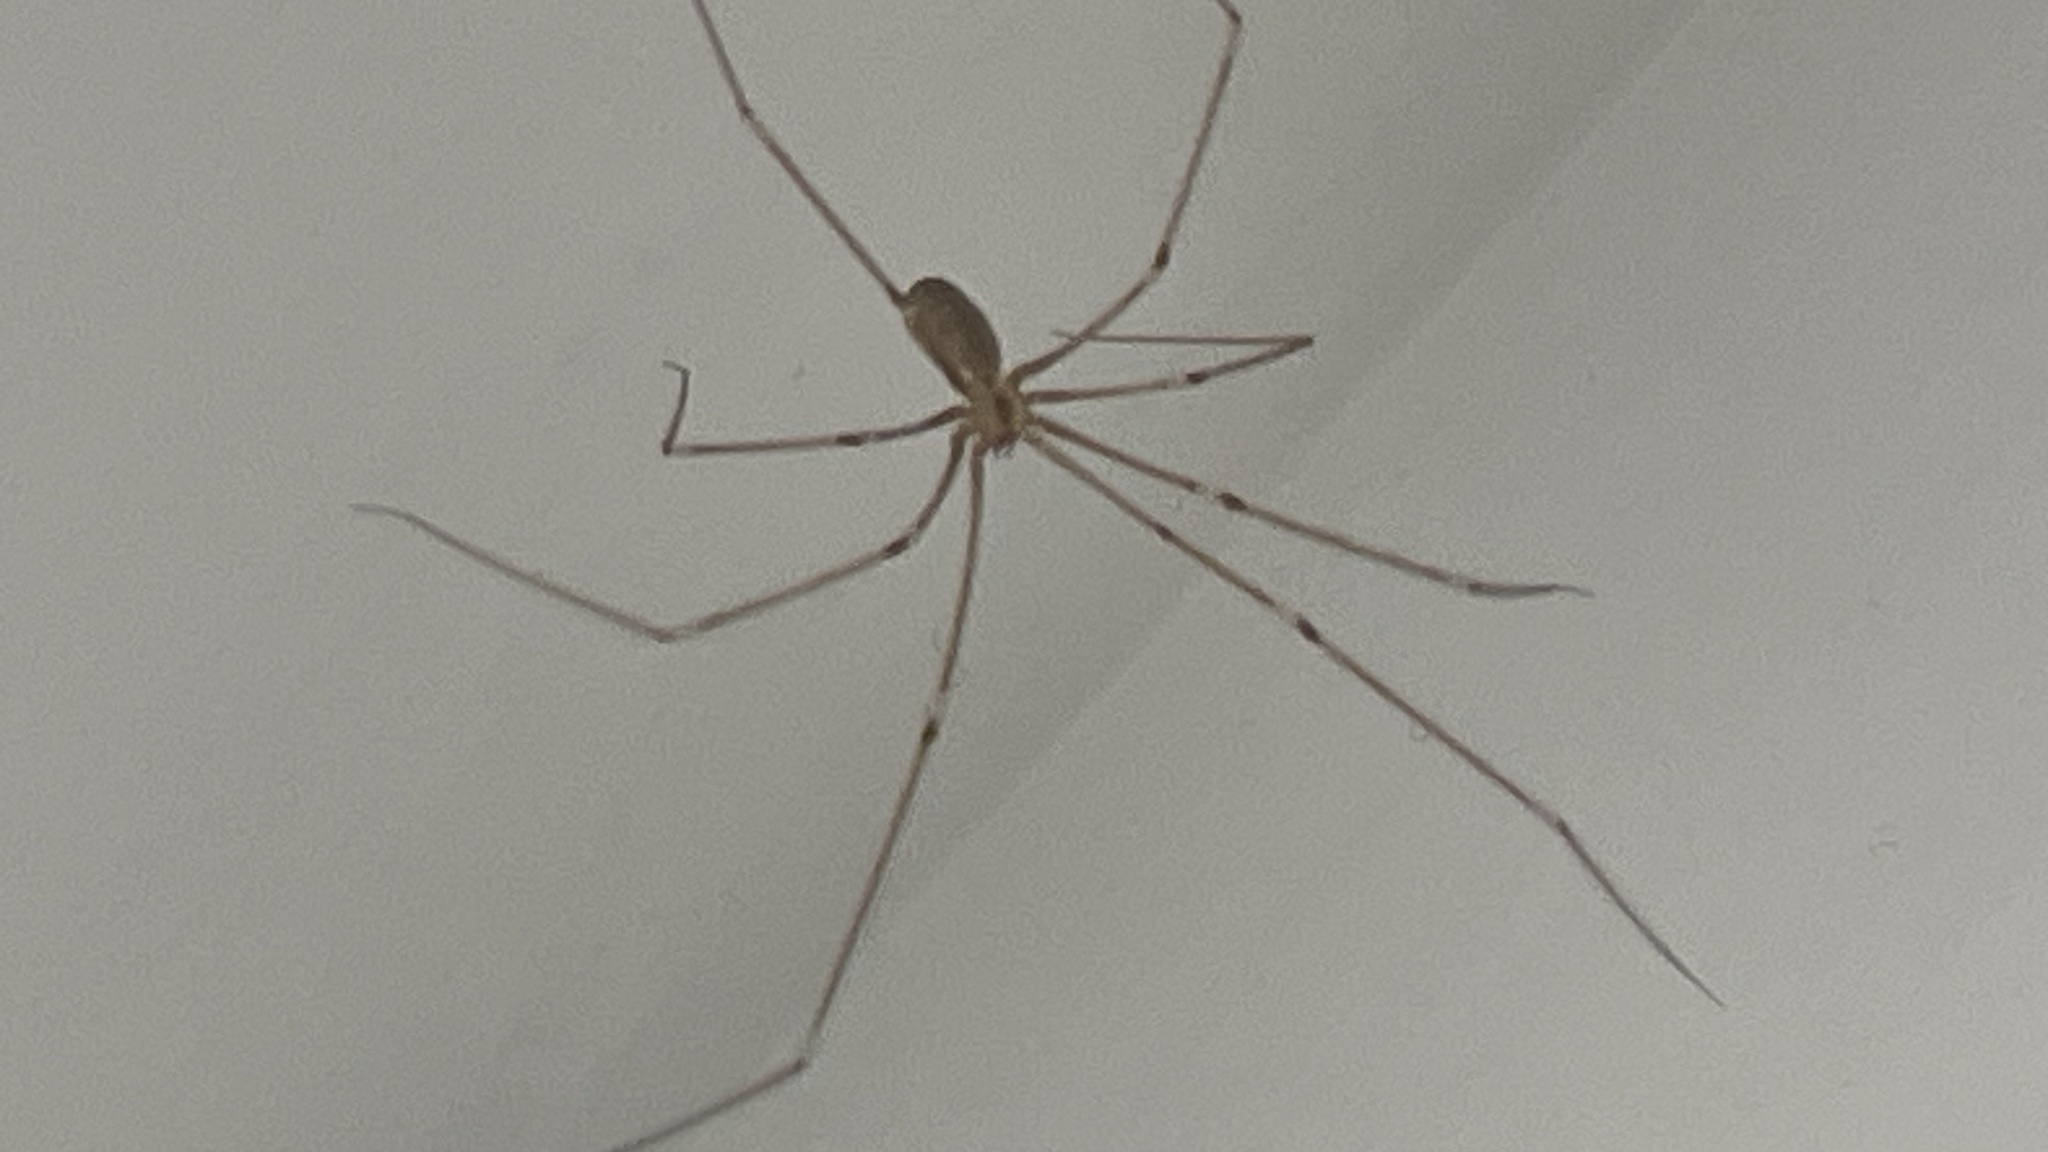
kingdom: Animalia
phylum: Arthropoda
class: Arachnida
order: Araneae
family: Pholcidae
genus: Pholcus
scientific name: Pholcus phalangioides
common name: Longbodied cellar spider
